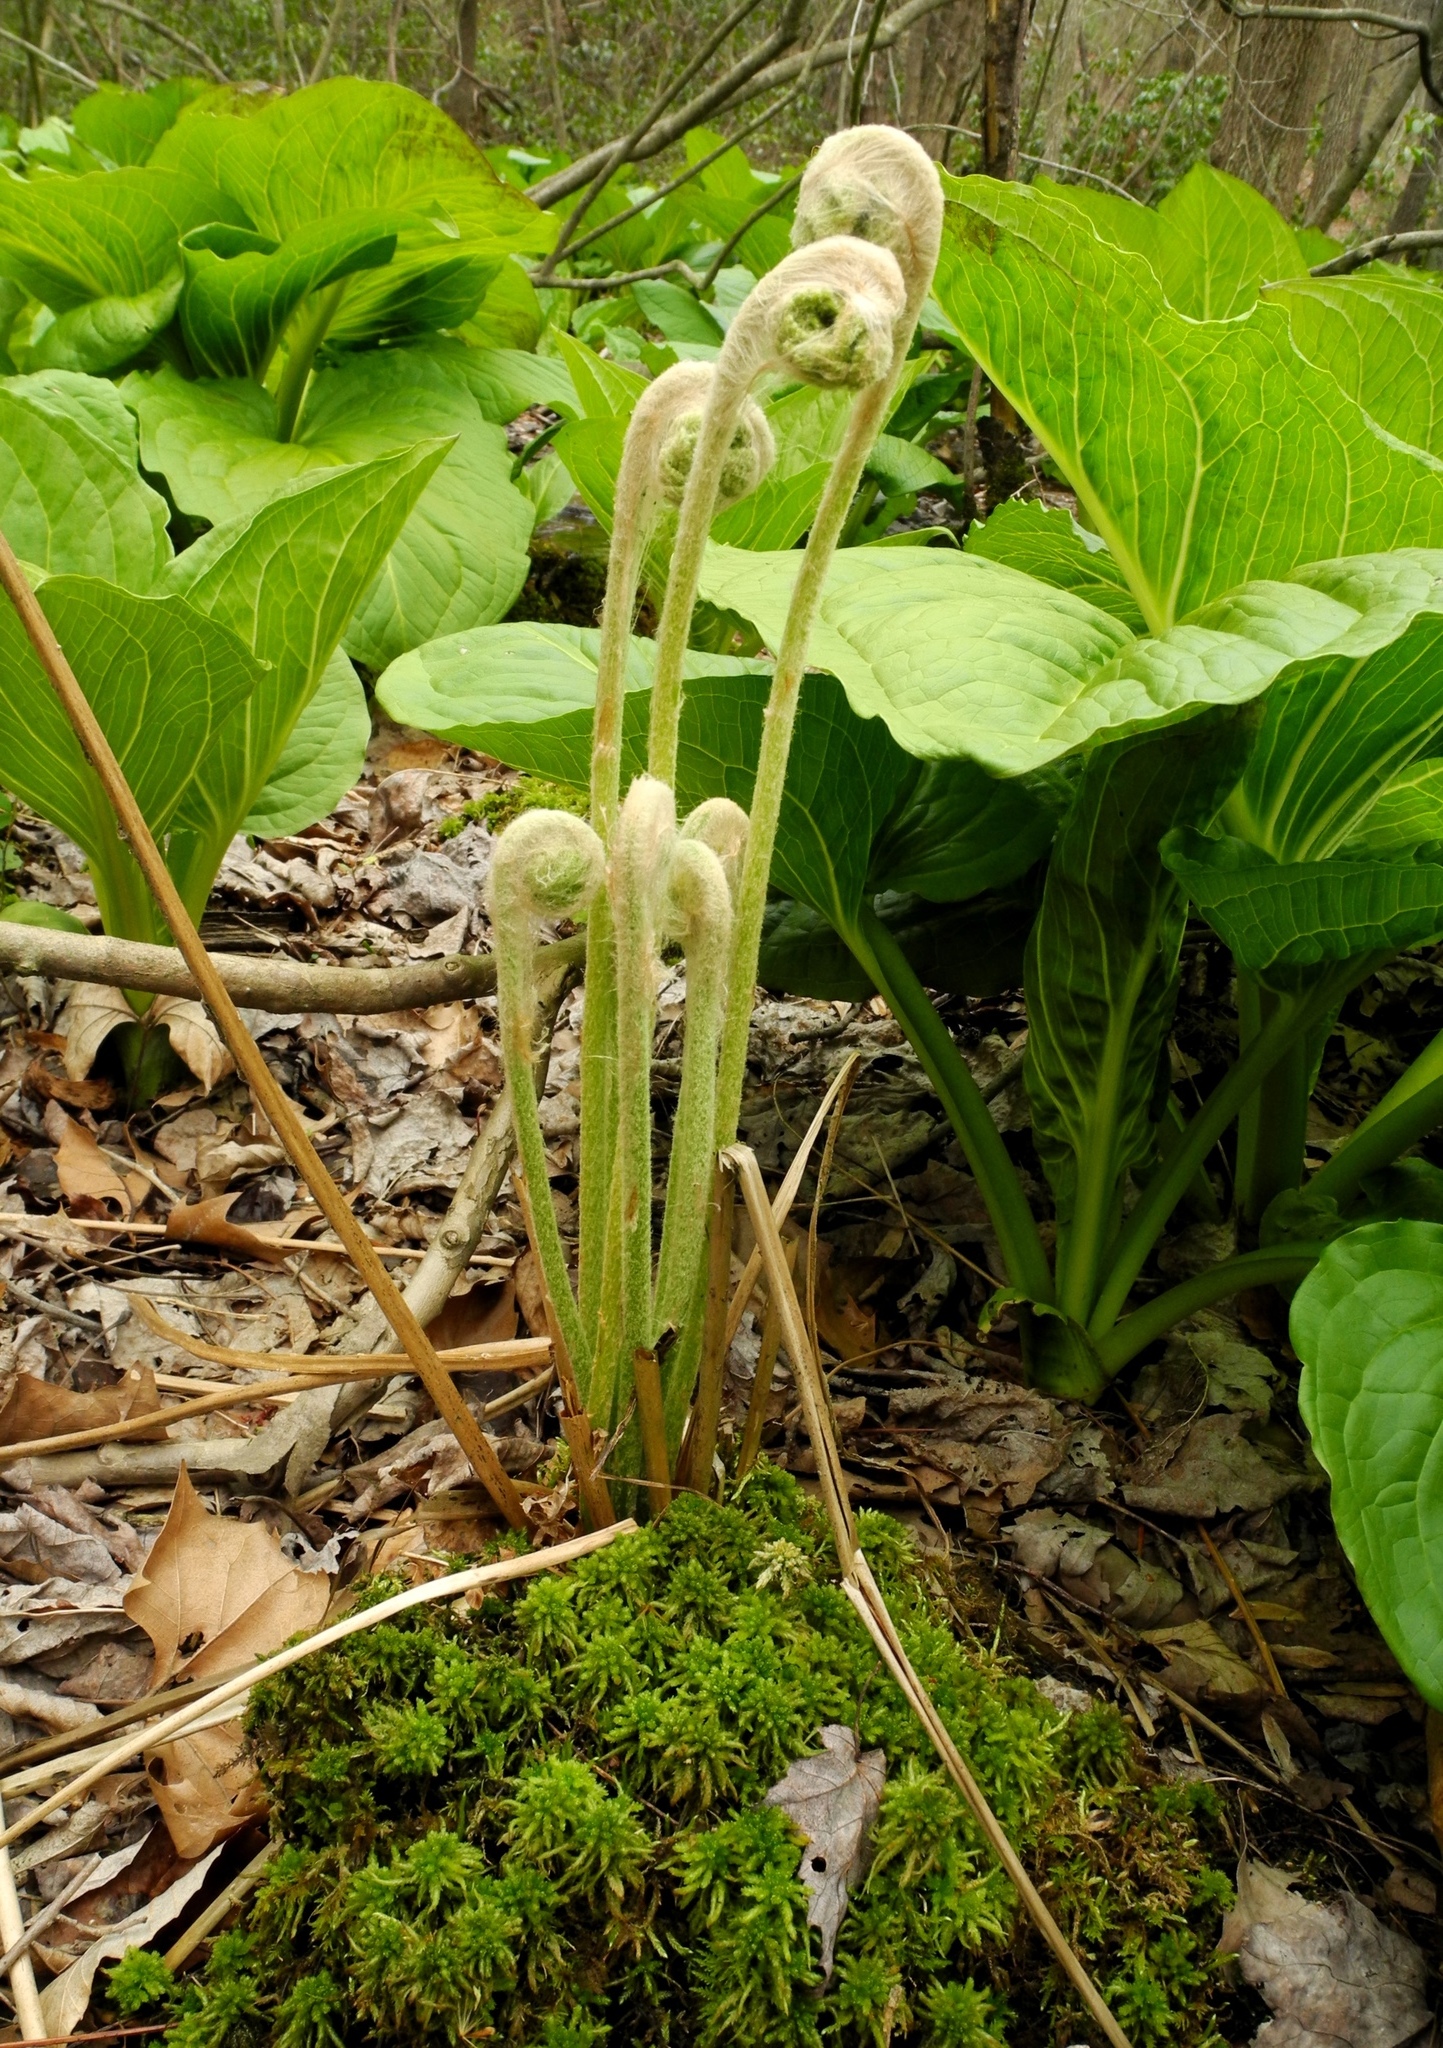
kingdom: Plantae
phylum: Tracheophyta
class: Polypodiopsida
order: Osmundales
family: Osmundaceae
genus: Osmundastrum
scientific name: Osmundastrum cinnamomeum
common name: Cinnamon fern
